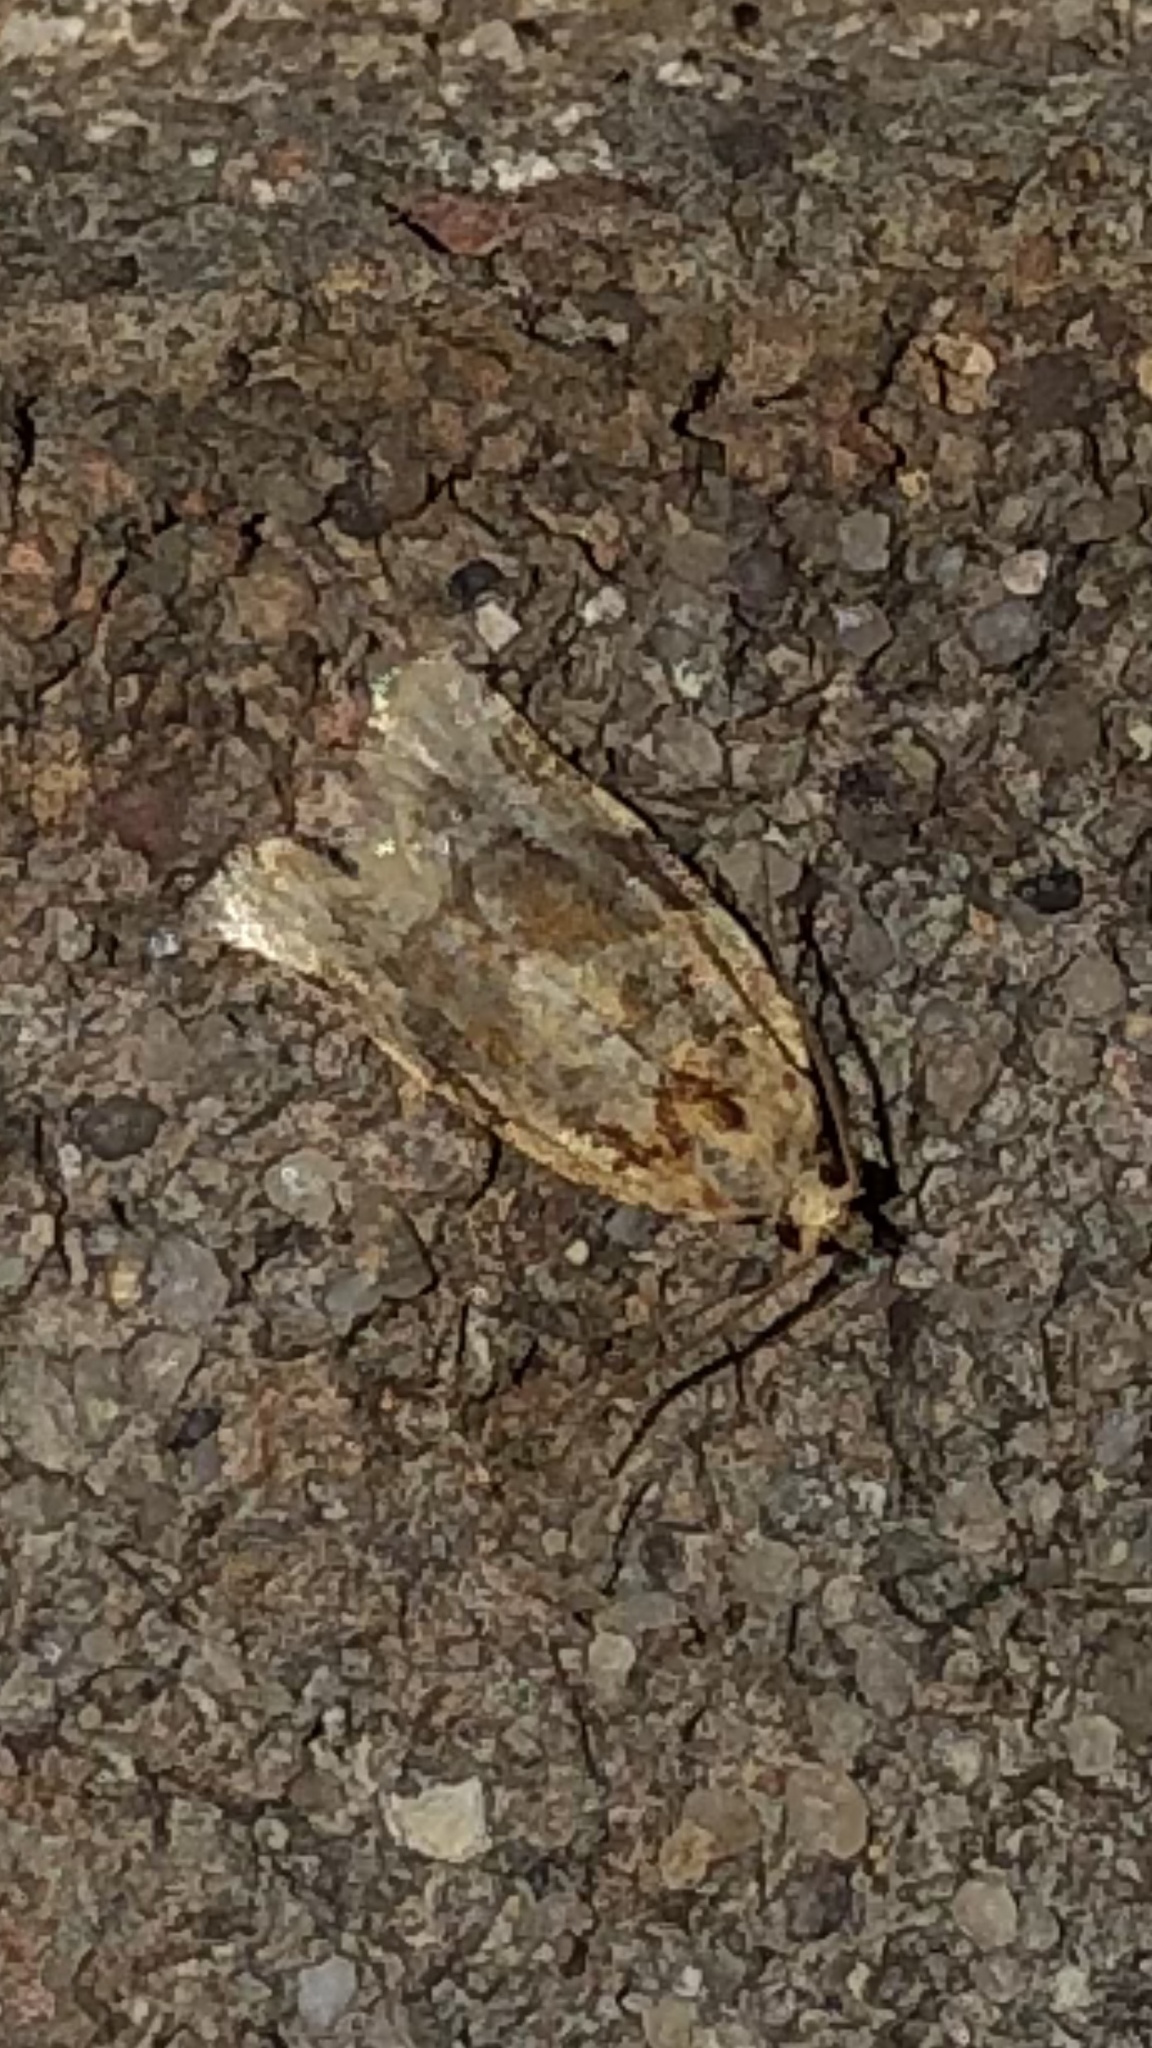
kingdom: Animalia
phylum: Arthropoda
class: Insecta
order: Lepidoptera
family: Tortricidae
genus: Argyrotaenia
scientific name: Argyrotaenia velutinana
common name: Red-banded leafroller moth
